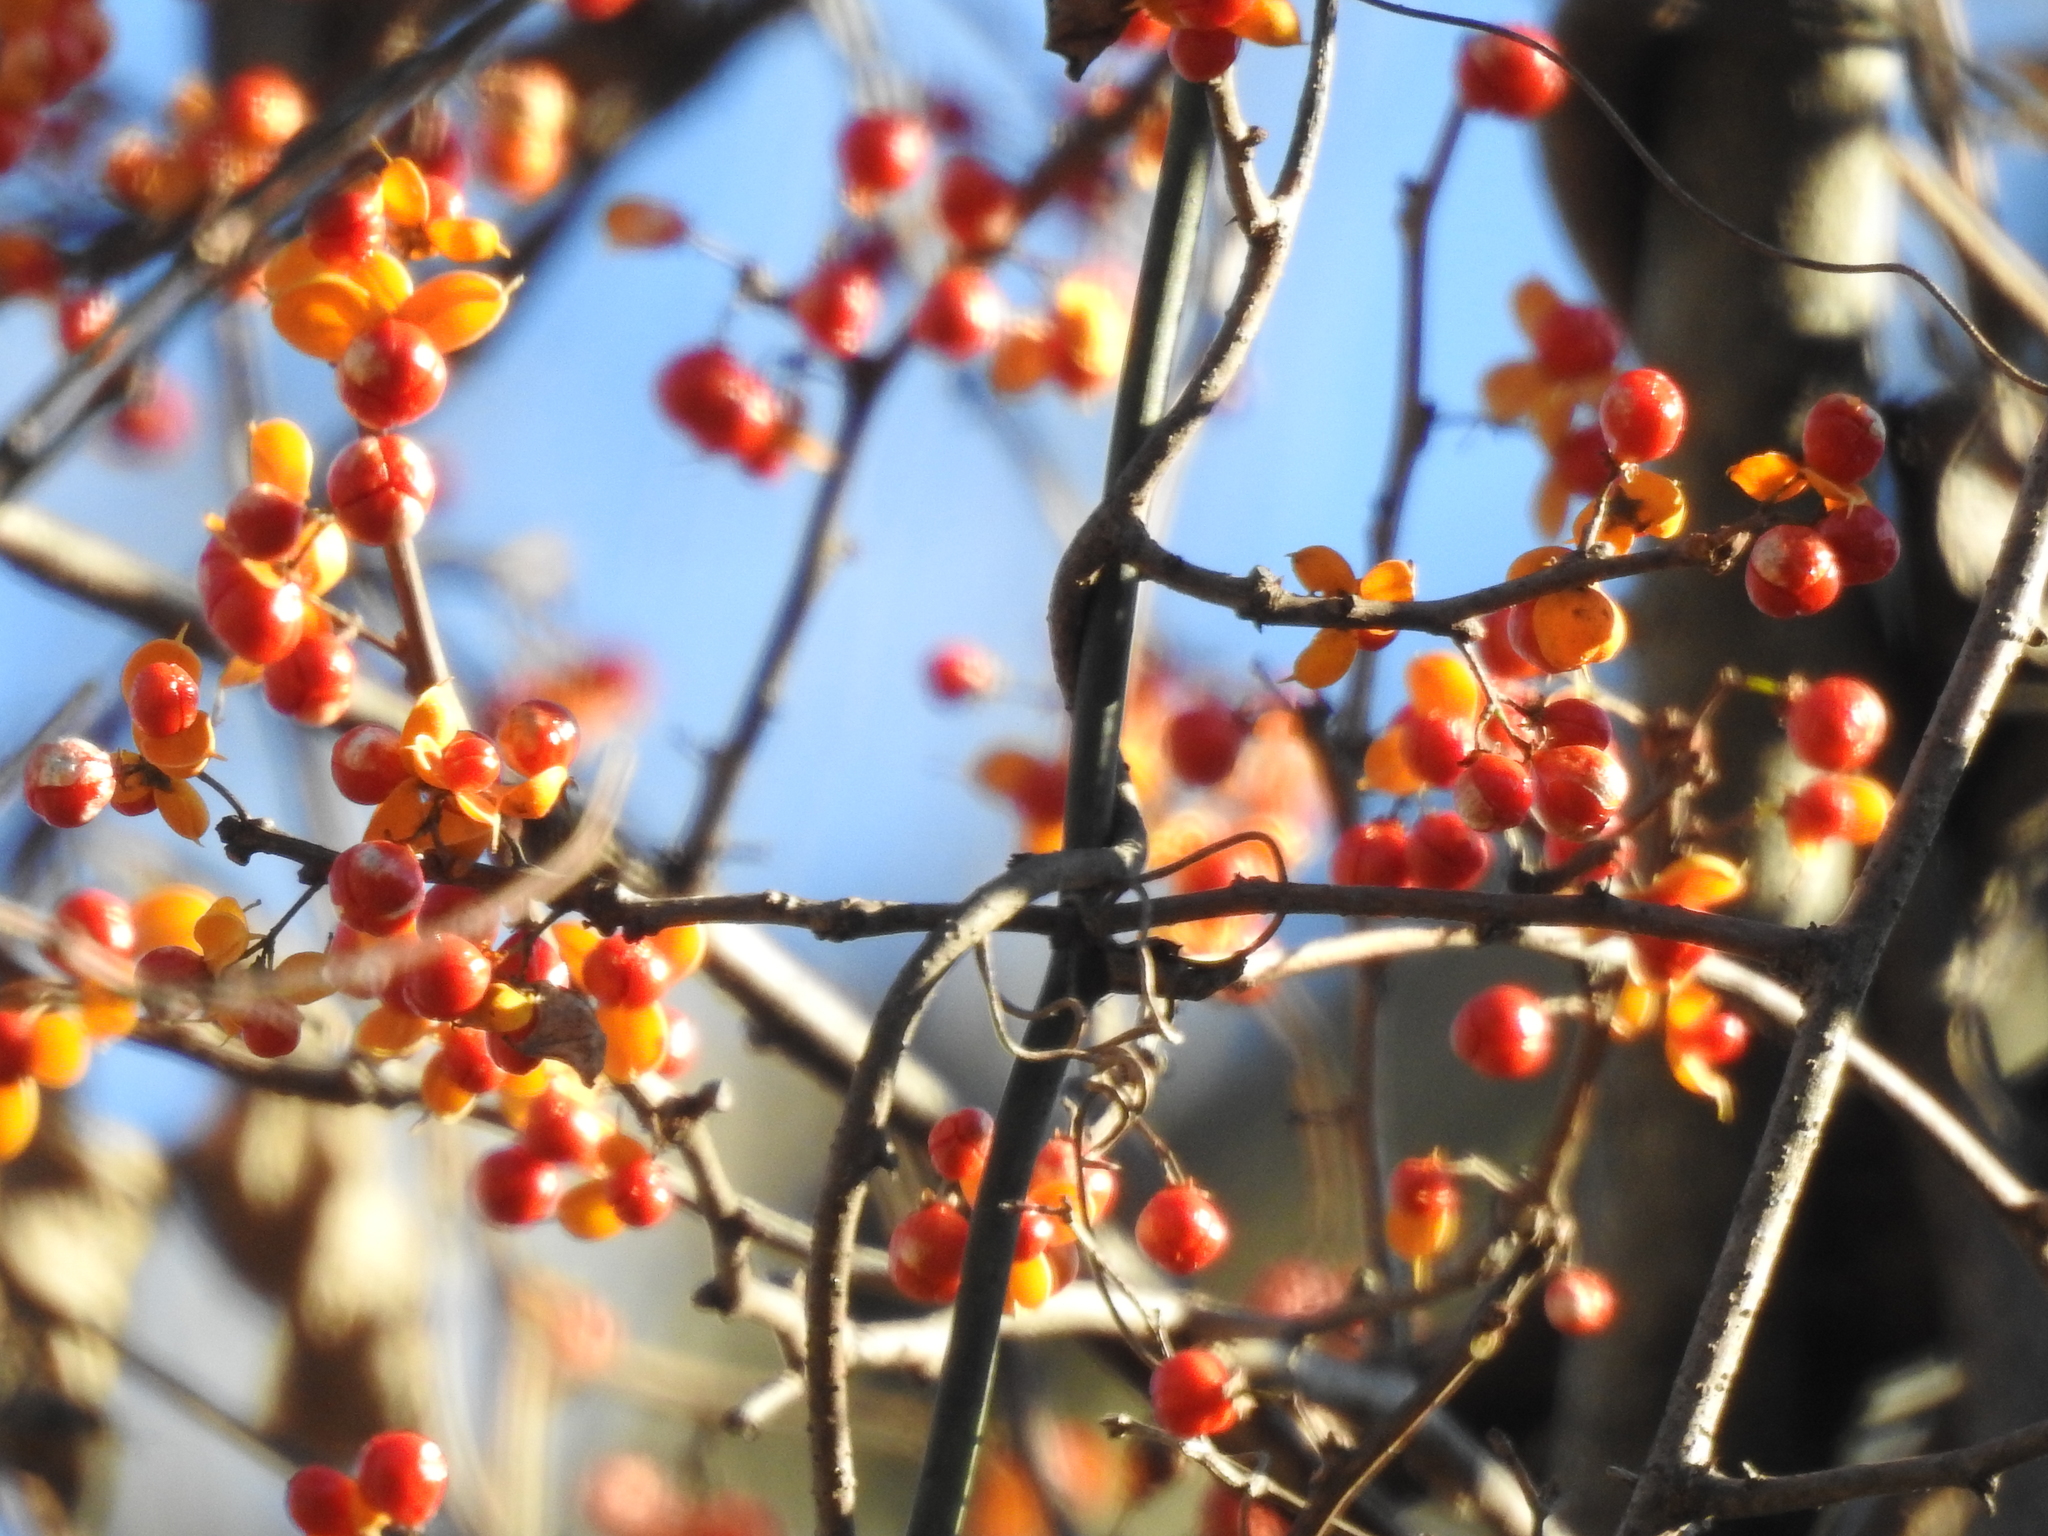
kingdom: Plantae
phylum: Tracheophyta
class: Magnoliopsida
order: Celastrales
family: Celastraceae
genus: Celastrus
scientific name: Celastrus orbiculatus
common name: Oriental bittersweet
